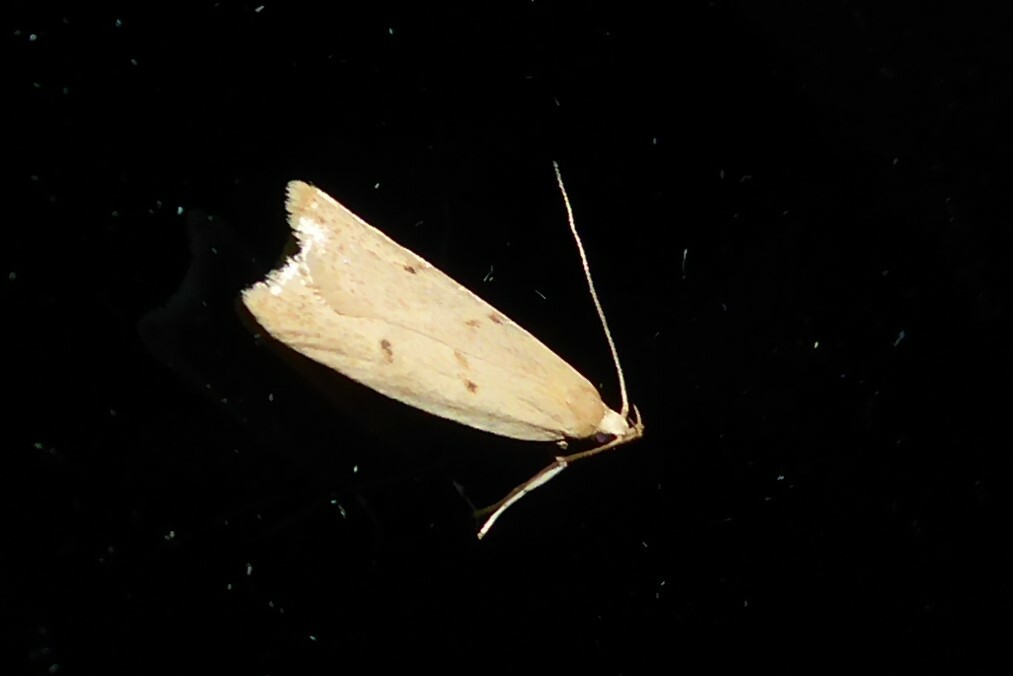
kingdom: Animalia
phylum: Arthropoda
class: Insecta
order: Lepidoptera
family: Oecophoridae
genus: Gymnobathra
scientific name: Gymnobathra sarcoxantha
